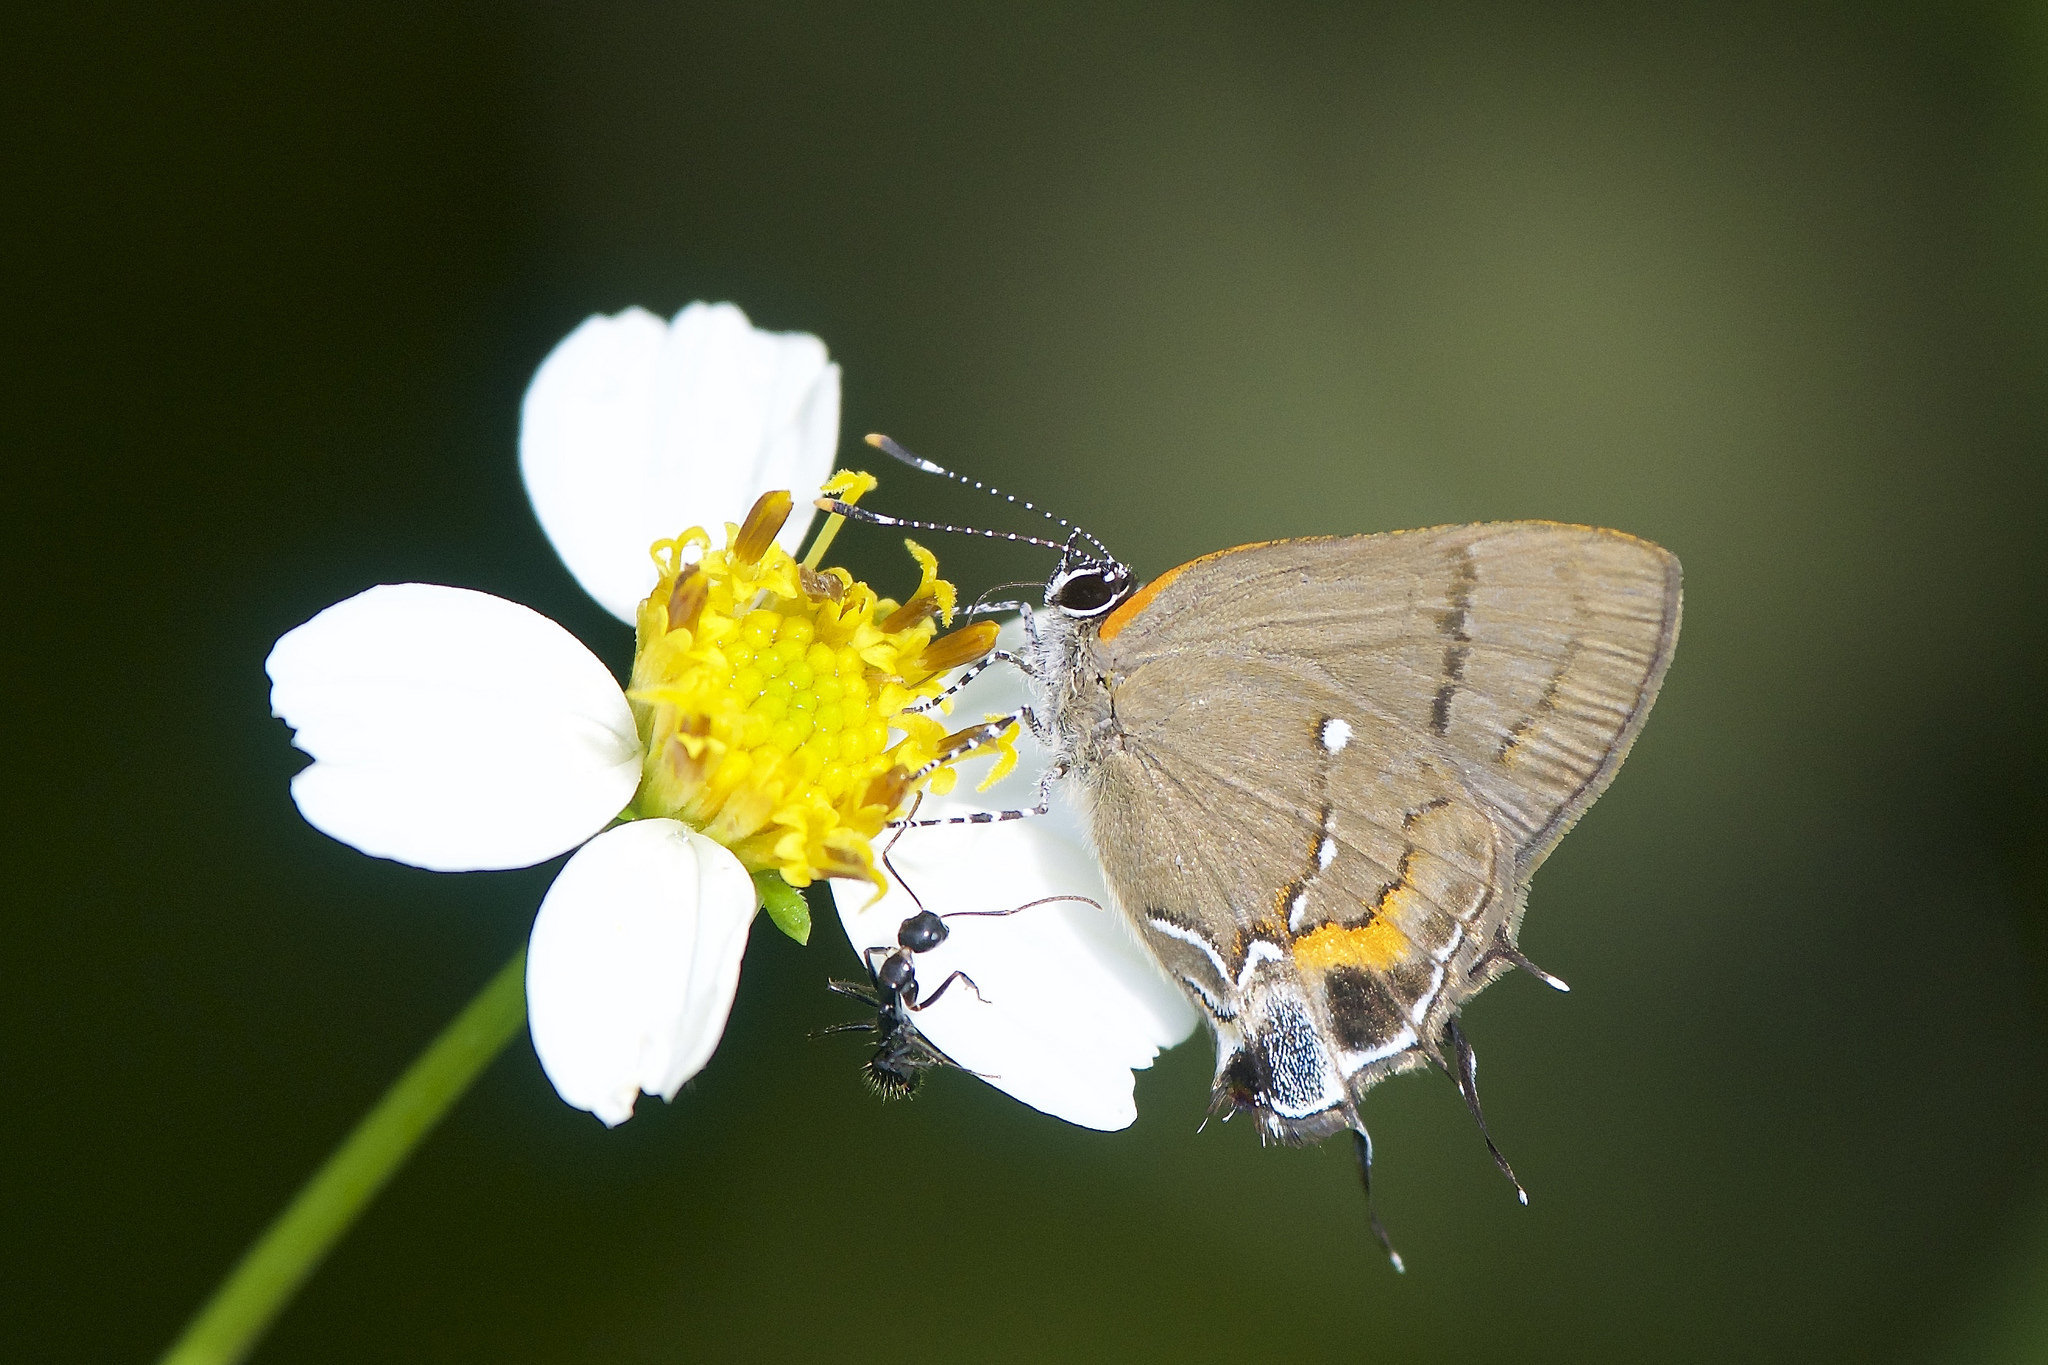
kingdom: Animalia
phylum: Arthropoda
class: Insecta
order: Lepidoptera
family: Lycaenidae
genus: Thecla
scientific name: Thecla angelia
